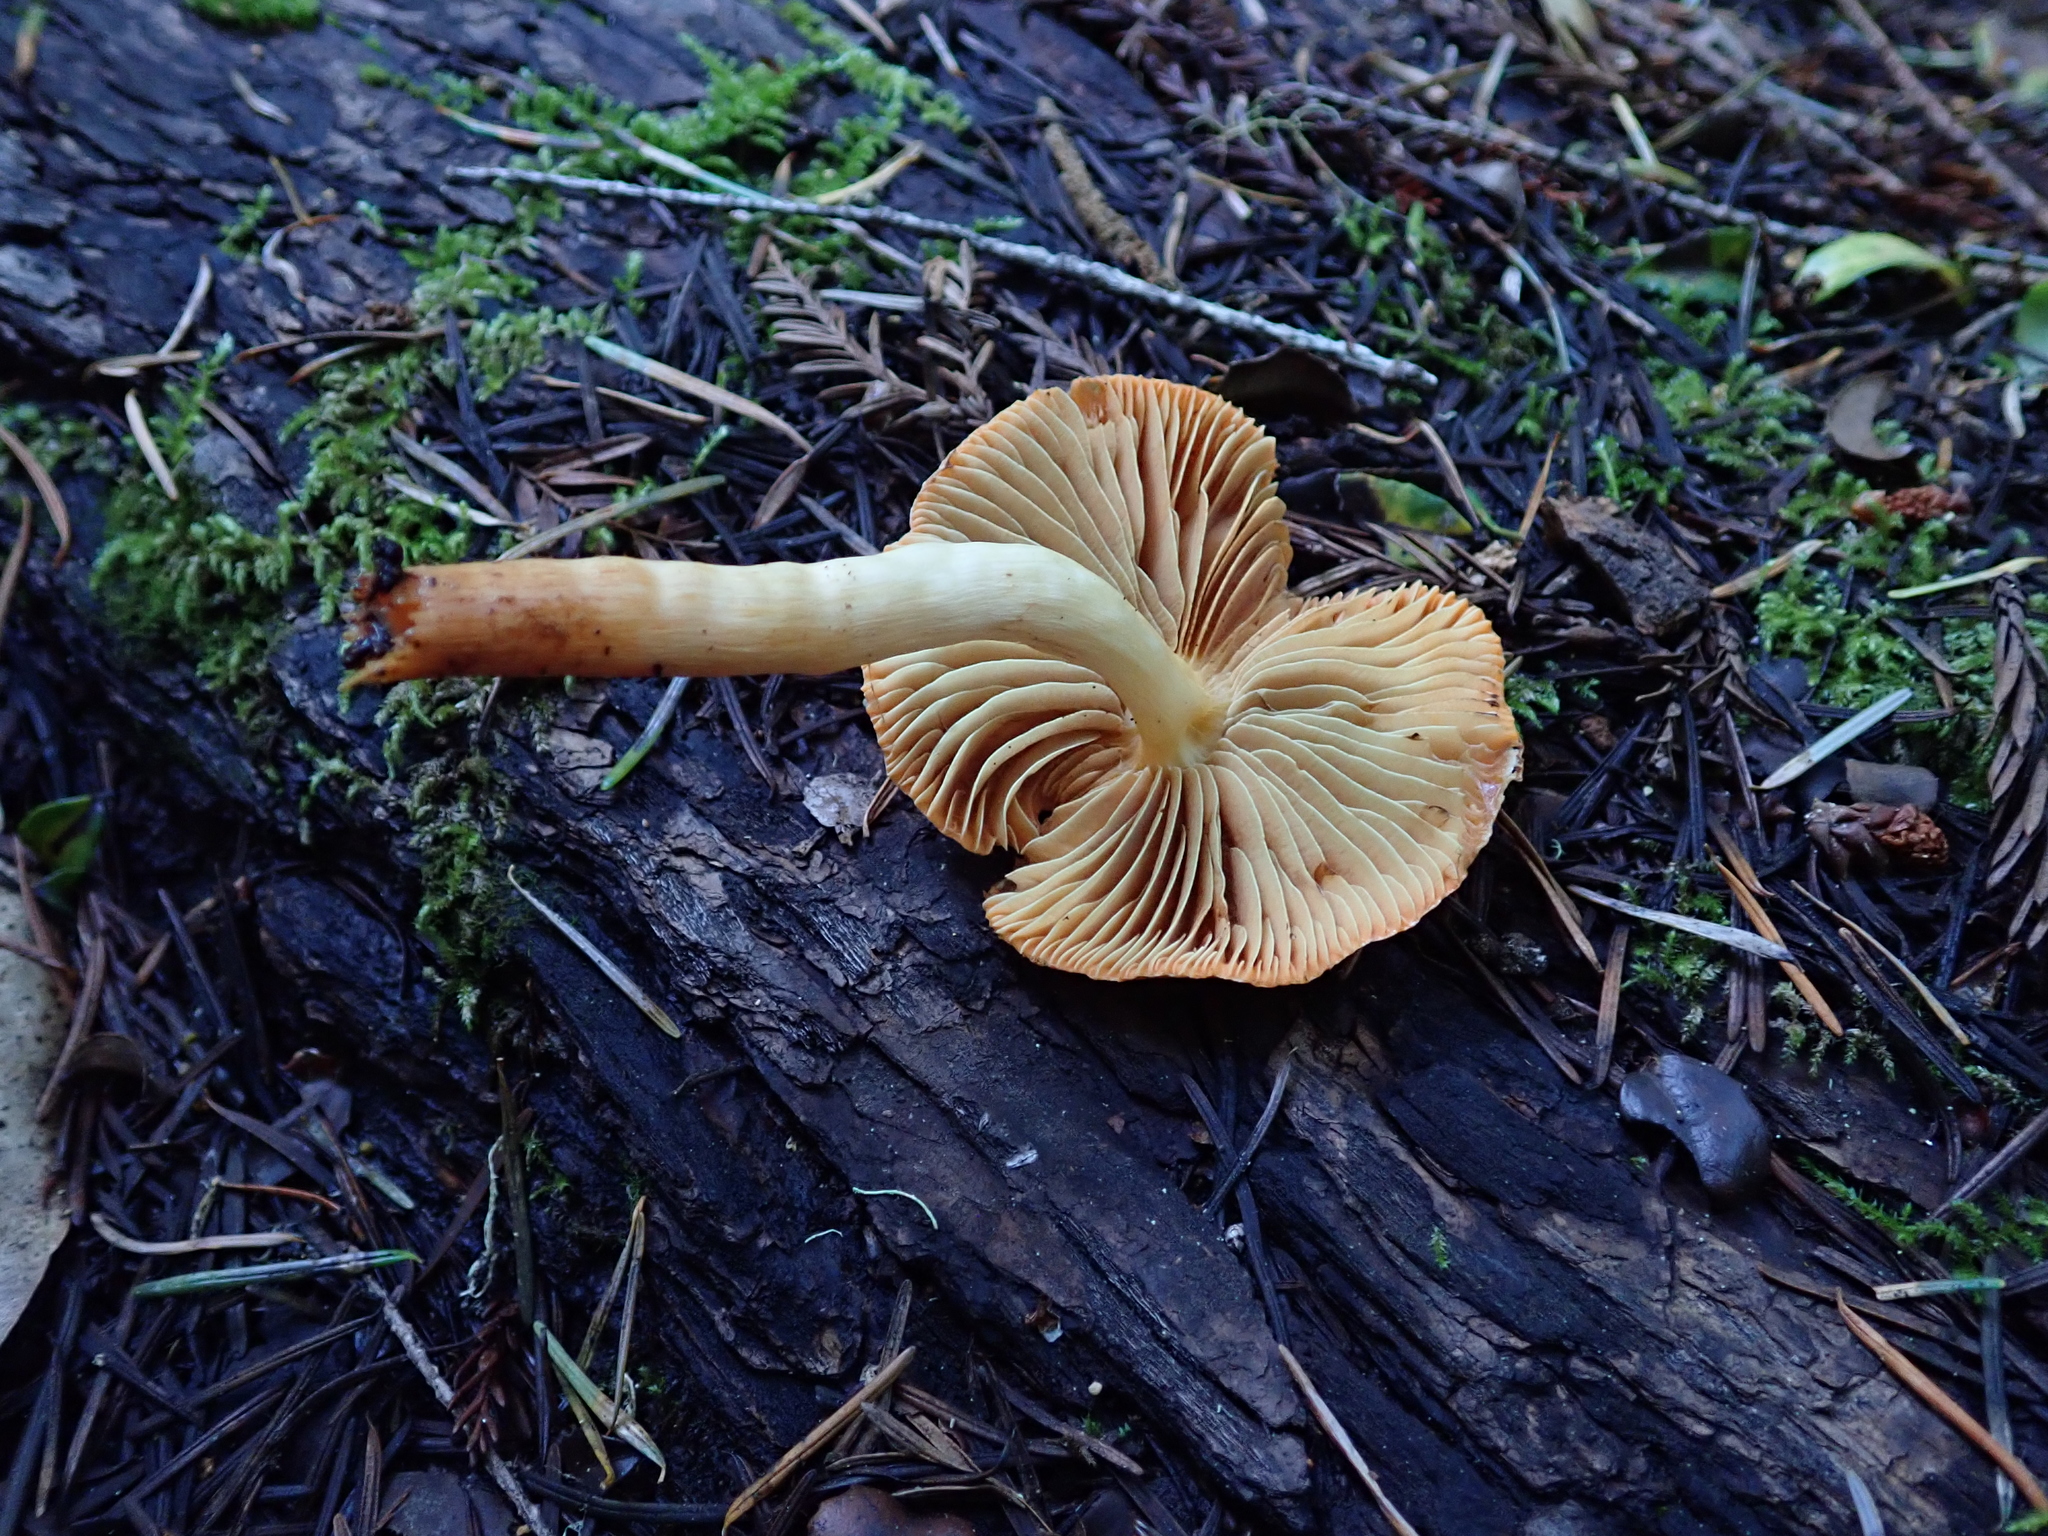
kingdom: Fungi
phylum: Basidiomycota
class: Agaricomycetes
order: Agaricales
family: Strophariaceae
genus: Pyrrhulomyces
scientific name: Pyrrhulomyces astragalinus
